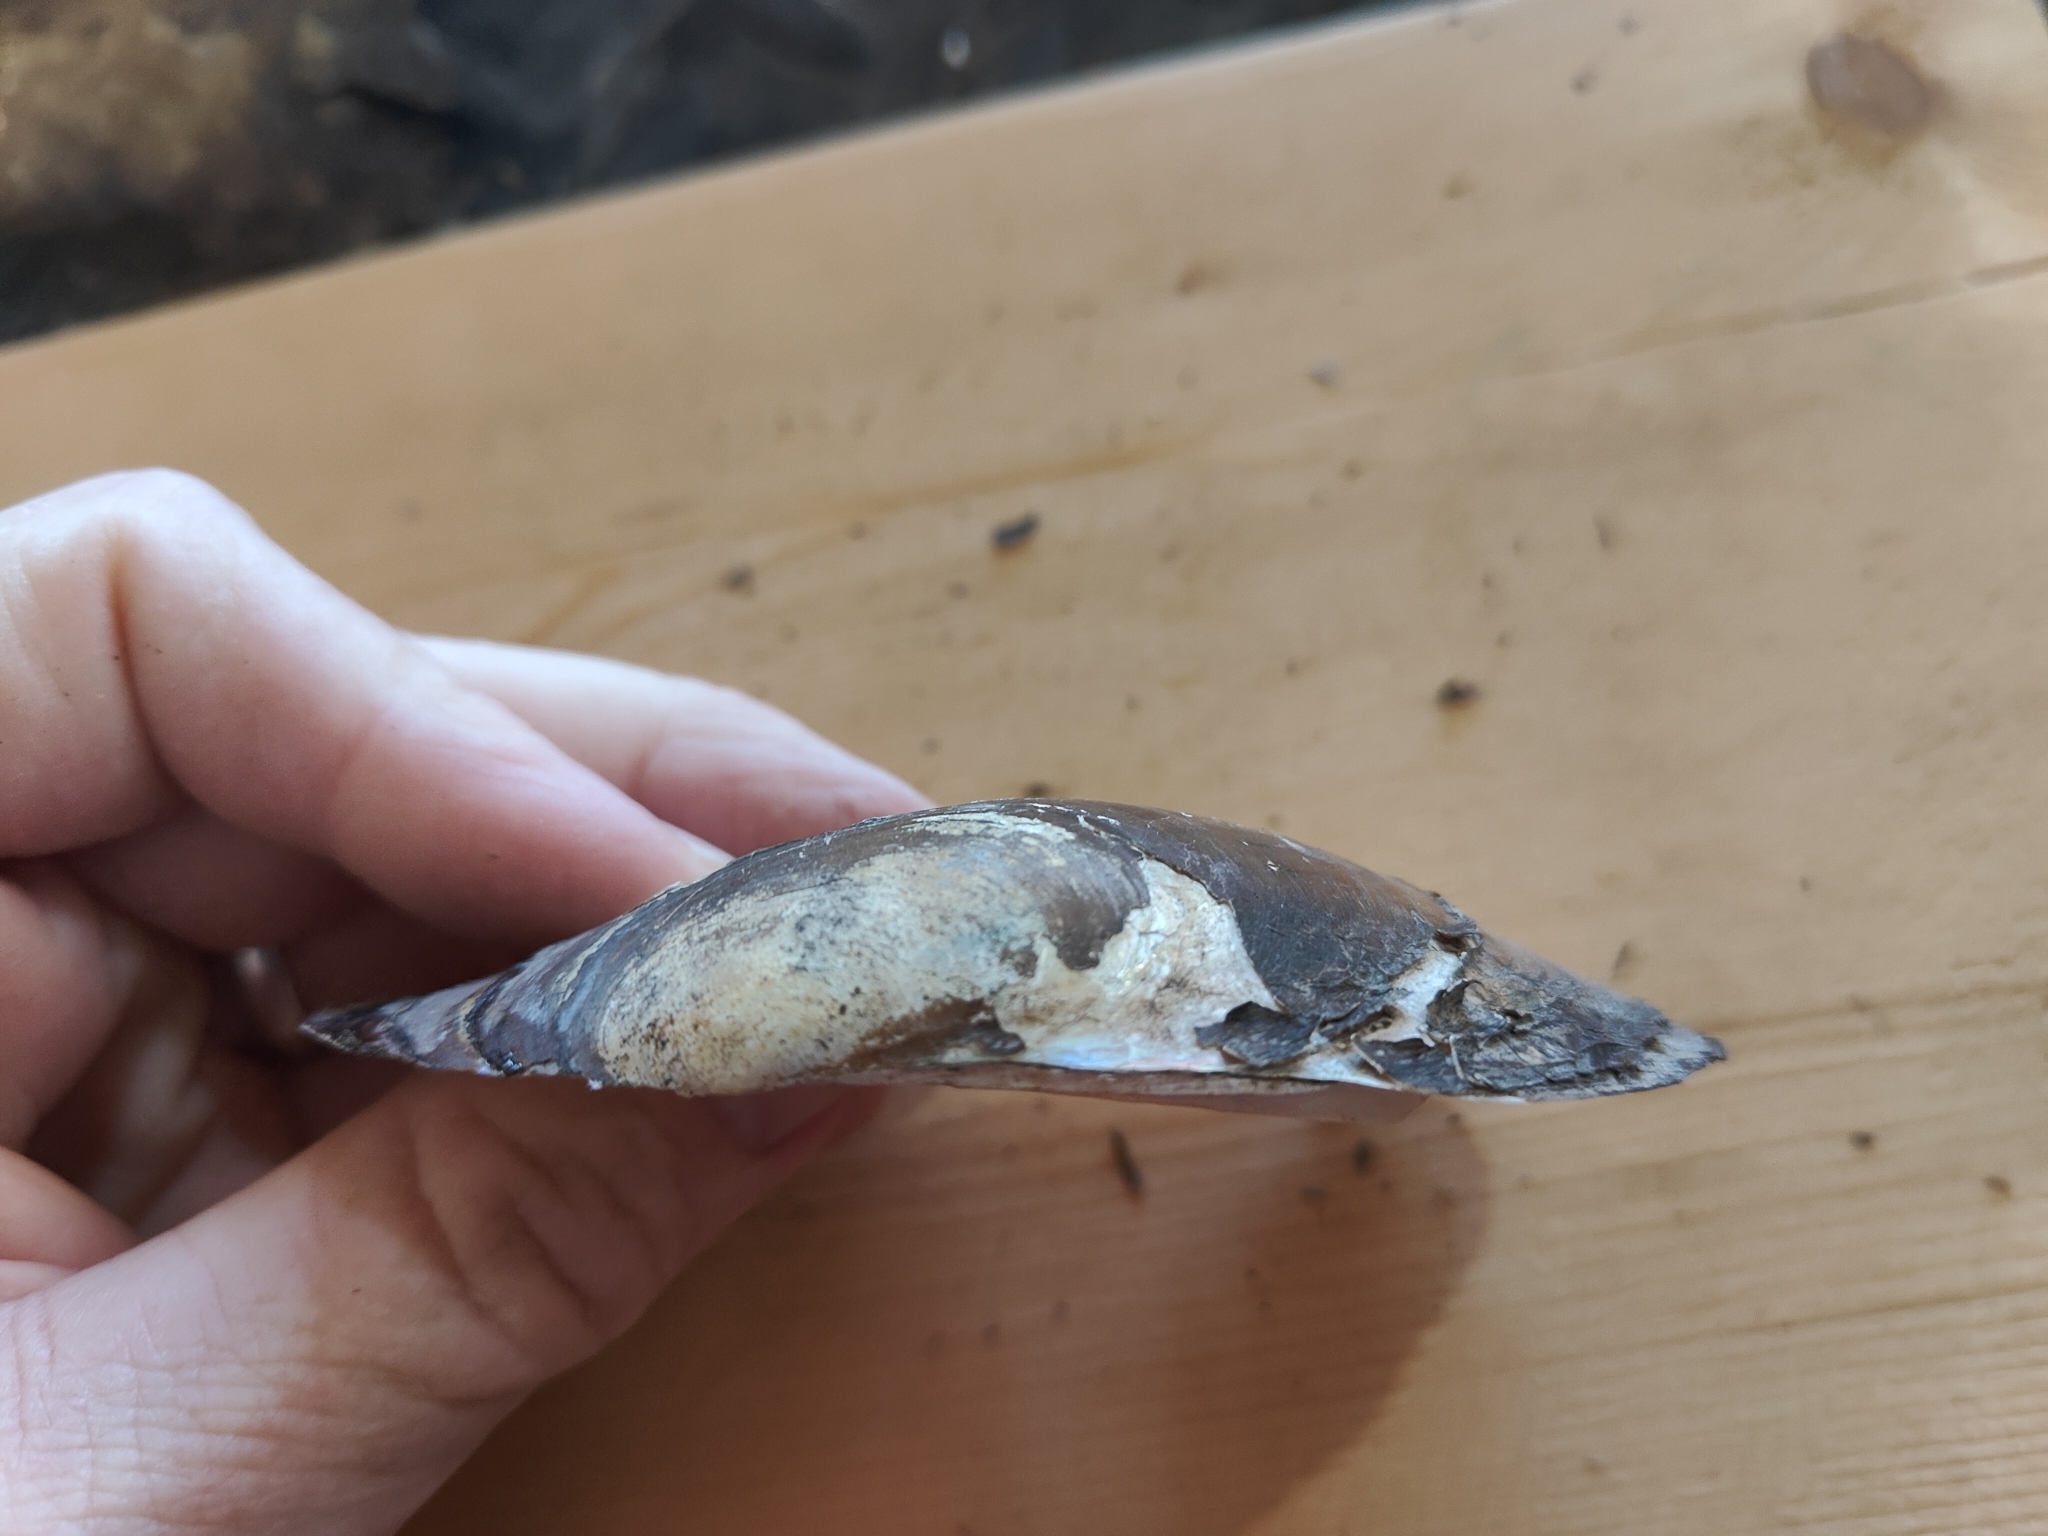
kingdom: Animalia
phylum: Mollusca
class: Bivalvia
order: Unionida
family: Unionidae
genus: Potamilus
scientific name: Potamilus fragilis
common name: Fragile papershell
